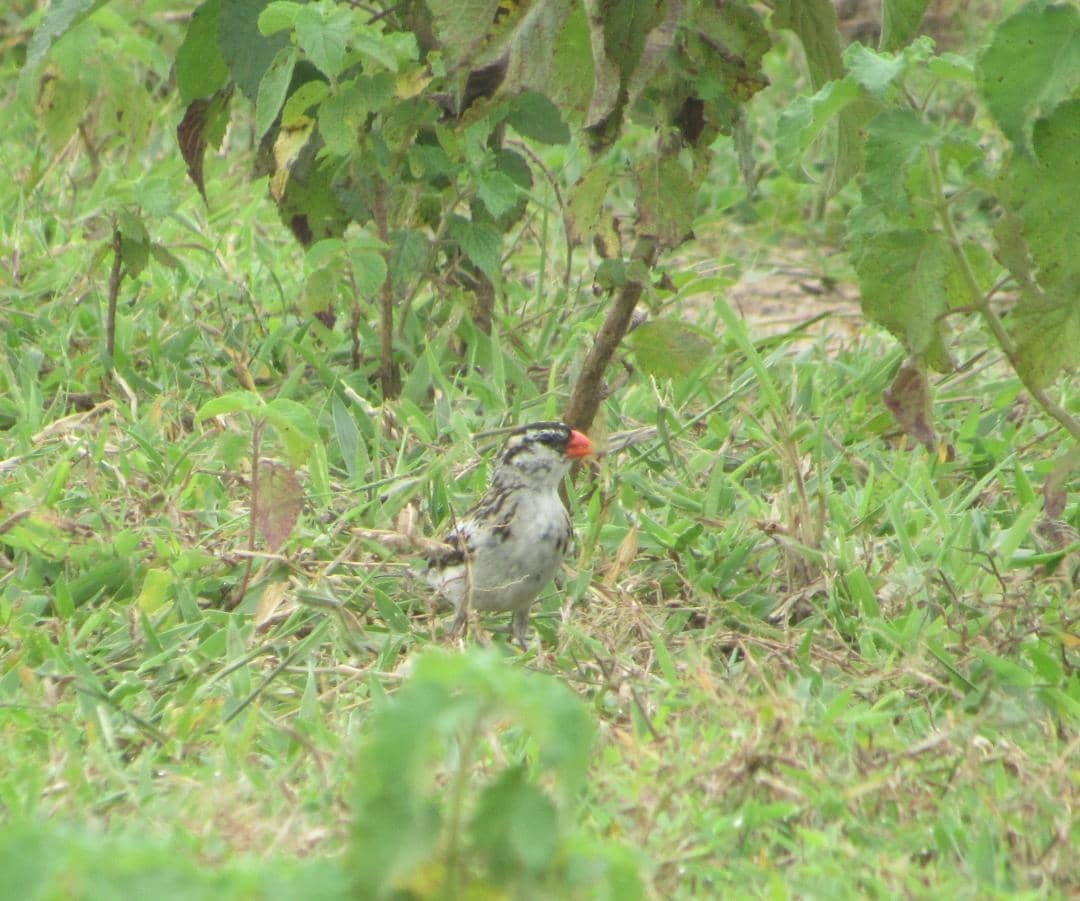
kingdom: Animalia
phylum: Chordata
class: Aves
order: Passeriformes
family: Viduidae
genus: Vidua
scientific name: Vidua macroura
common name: Pin-tailed whydah
